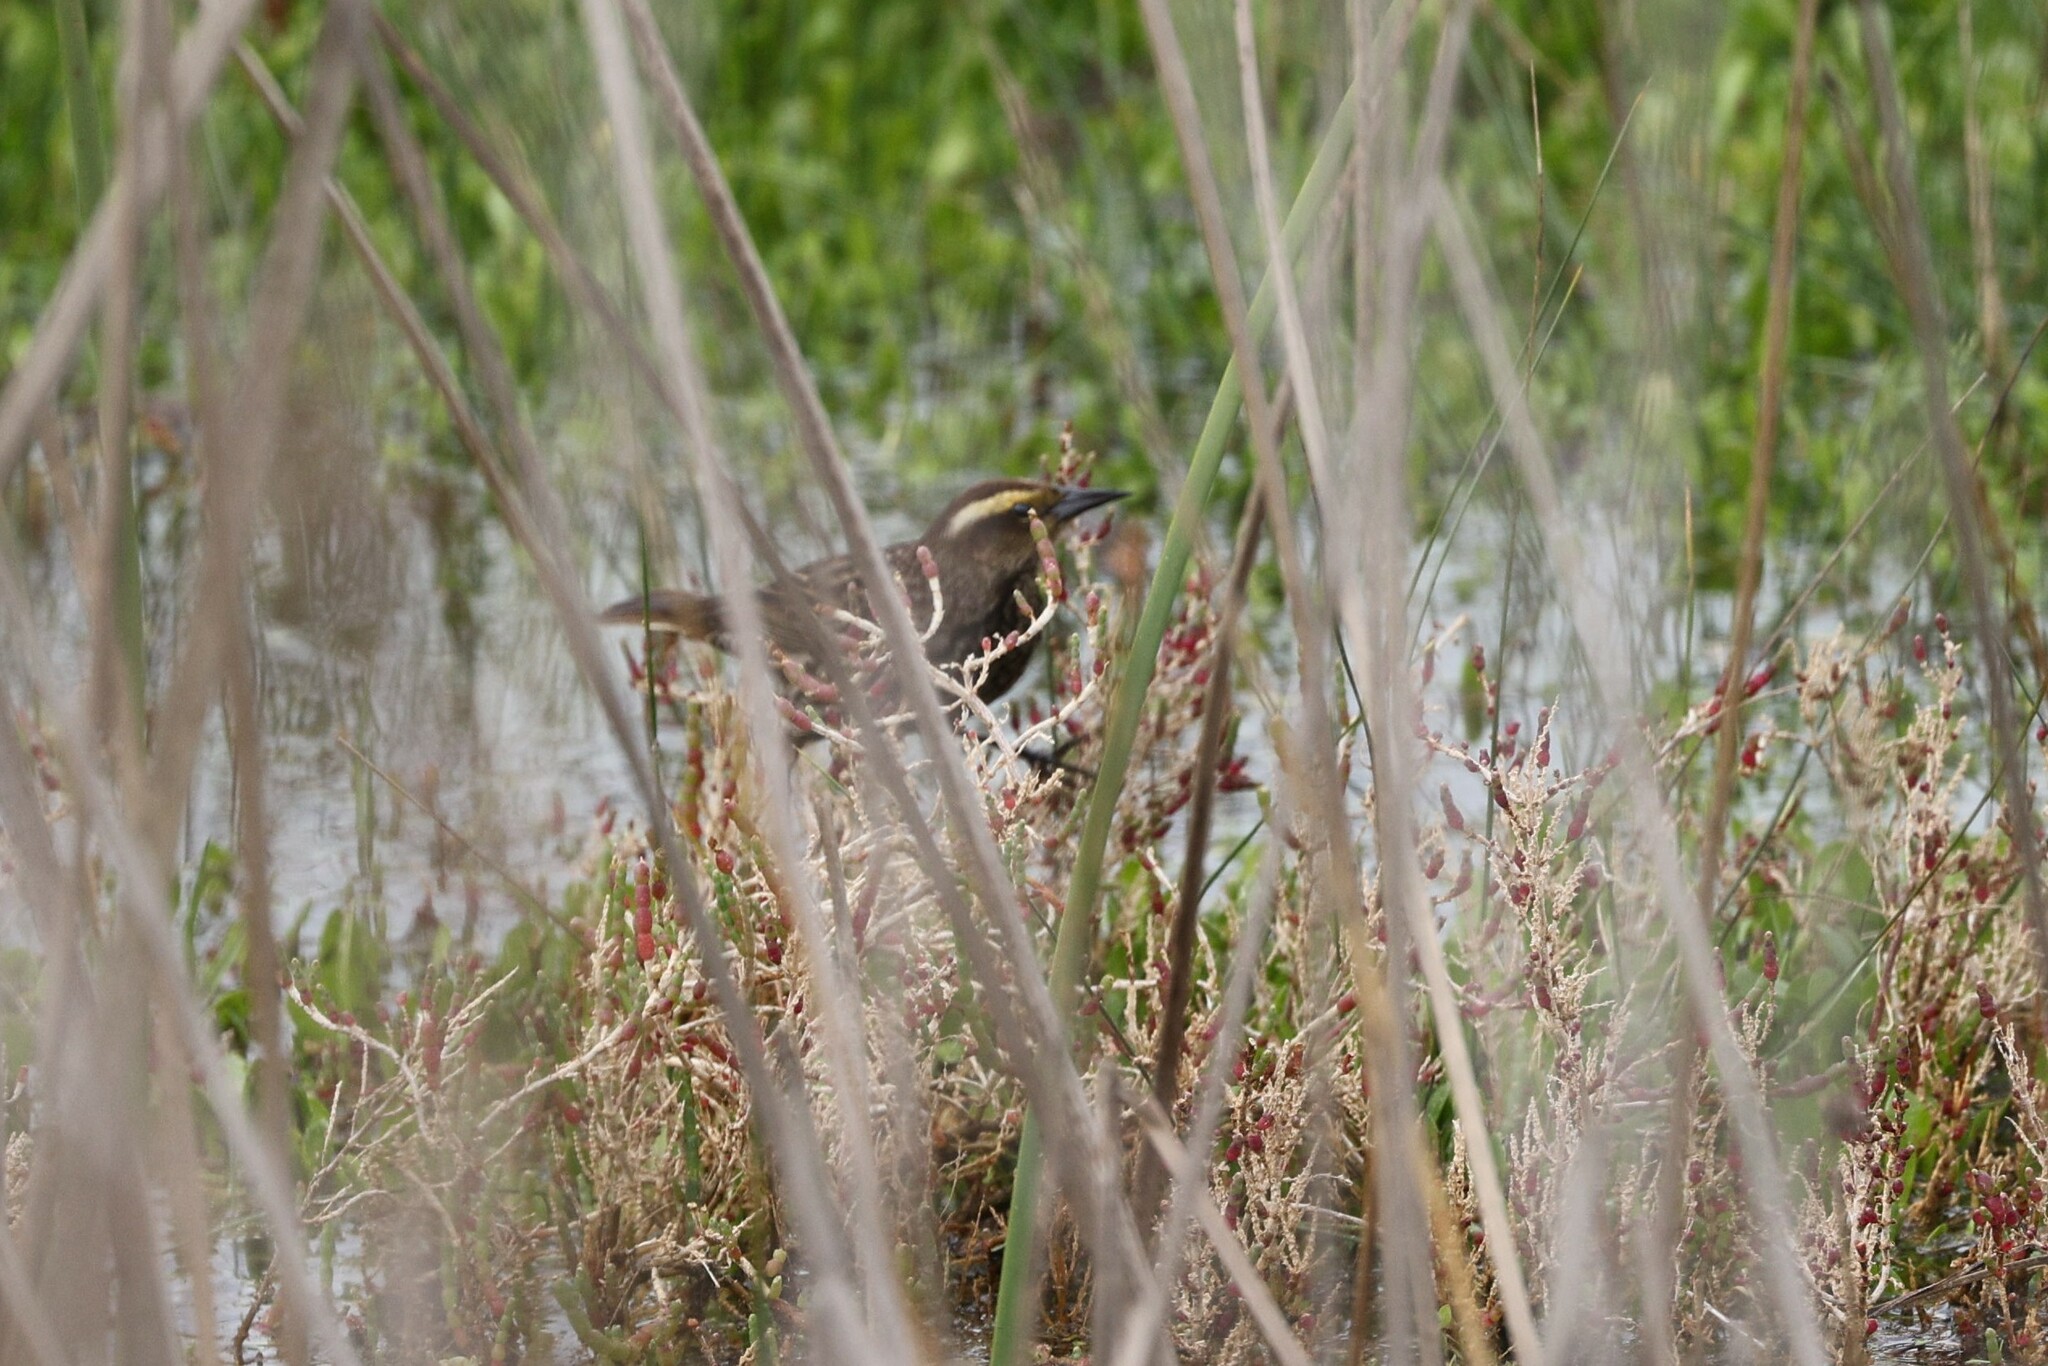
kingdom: Animalia
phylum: Chordata
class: Aves
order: Passeriformes
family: Icteridae
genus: Sturnella
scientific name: Sturnella loyca
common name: Long-tailed meadowlark
